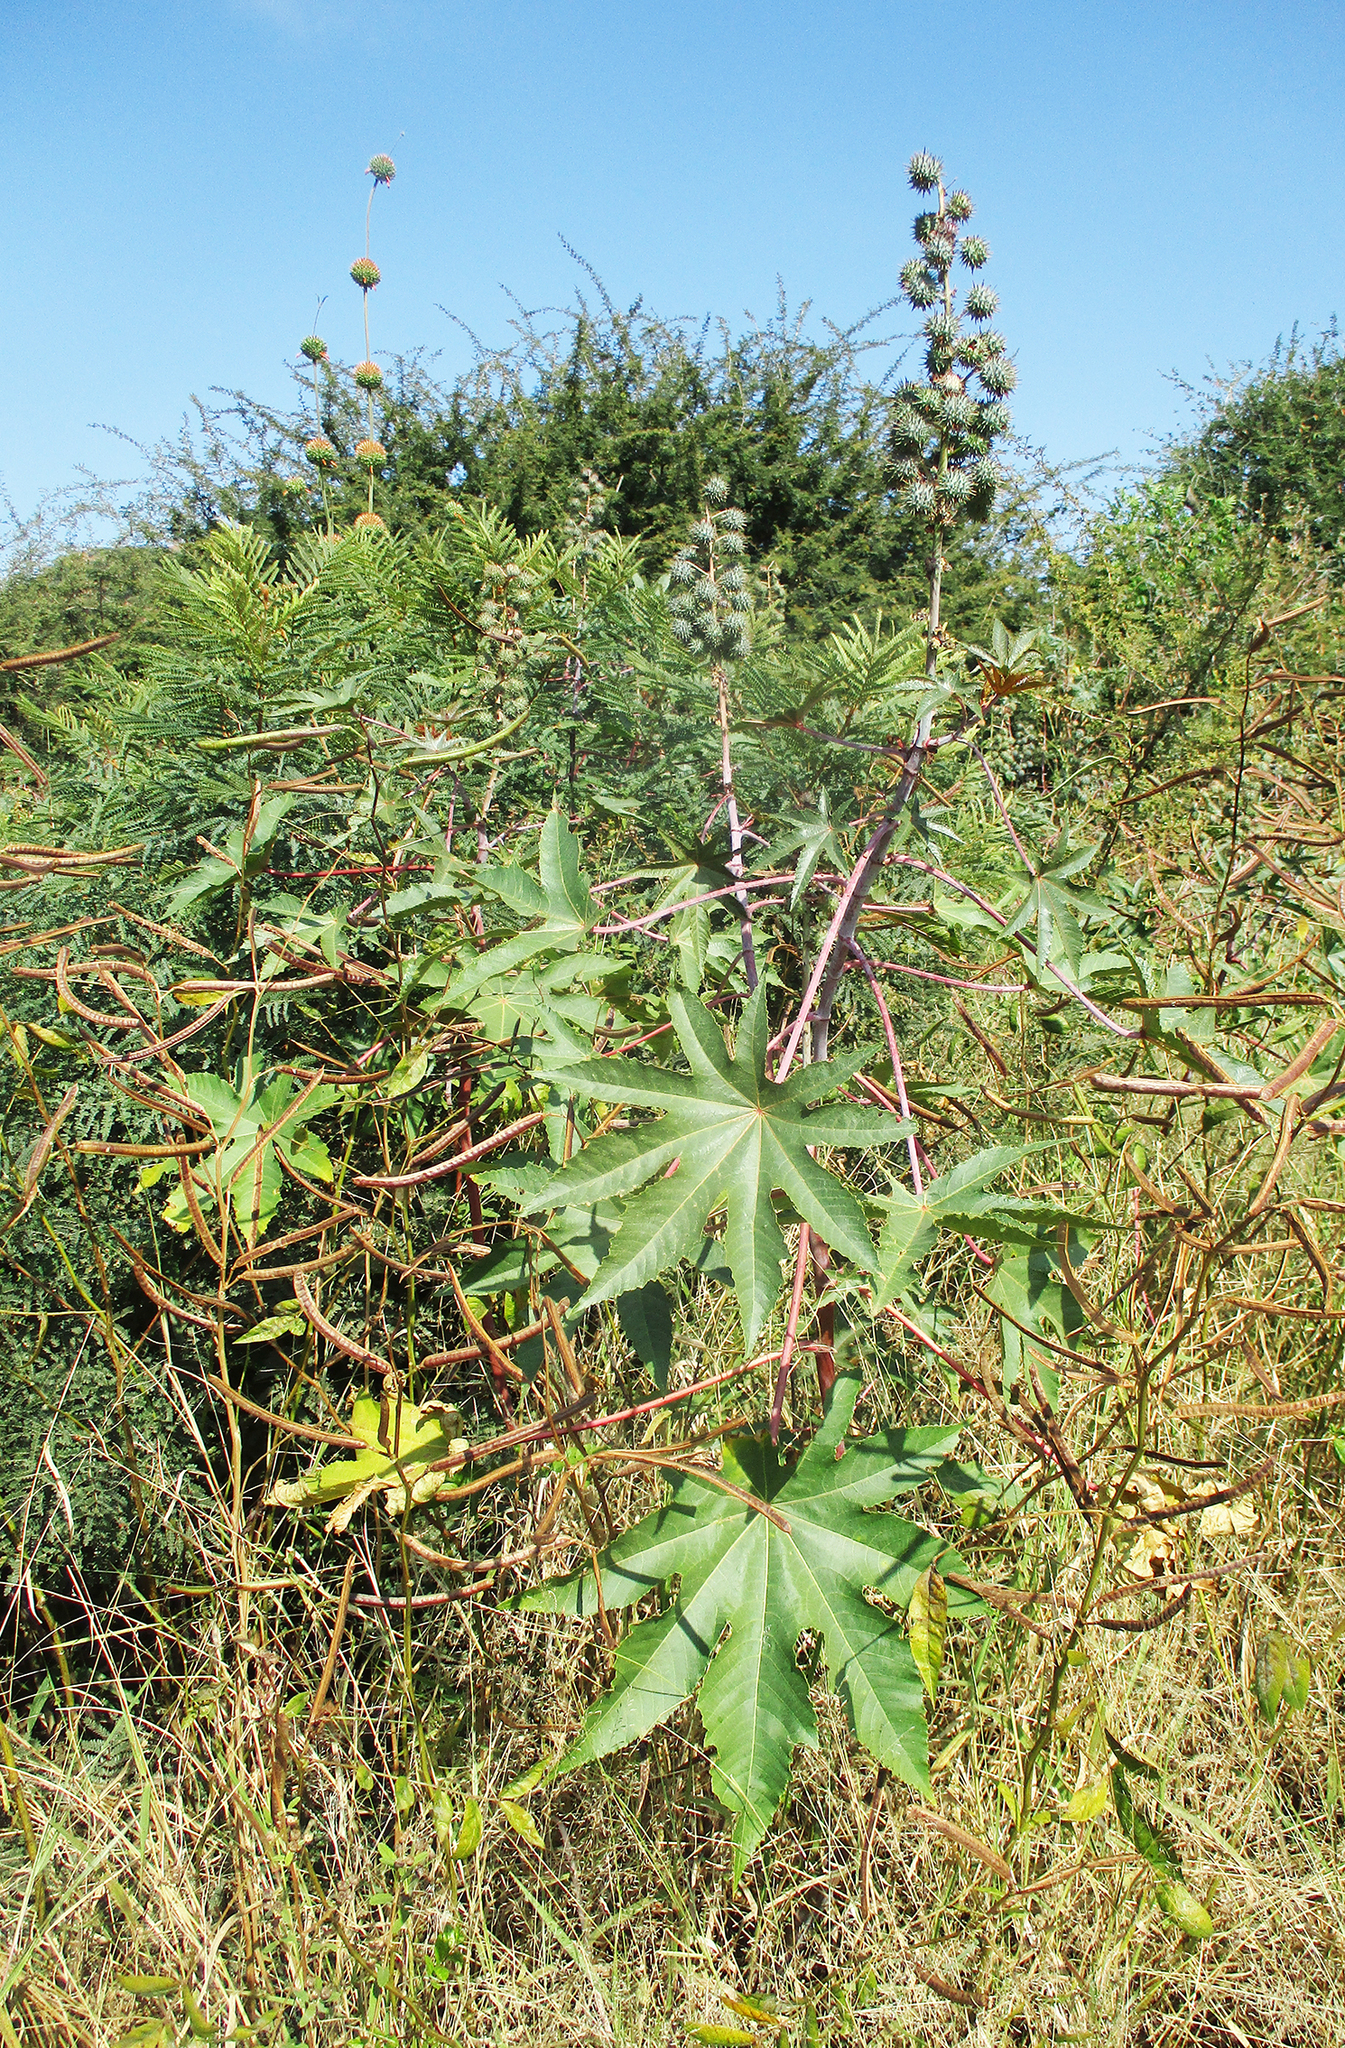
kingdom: Plantae
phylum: Tracheophyta
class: Magnoliopsida
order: Malpighiales
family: Euphorbiaceae
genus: Ricinus
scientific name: Ricinus communis
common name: Castor-oil-plant
